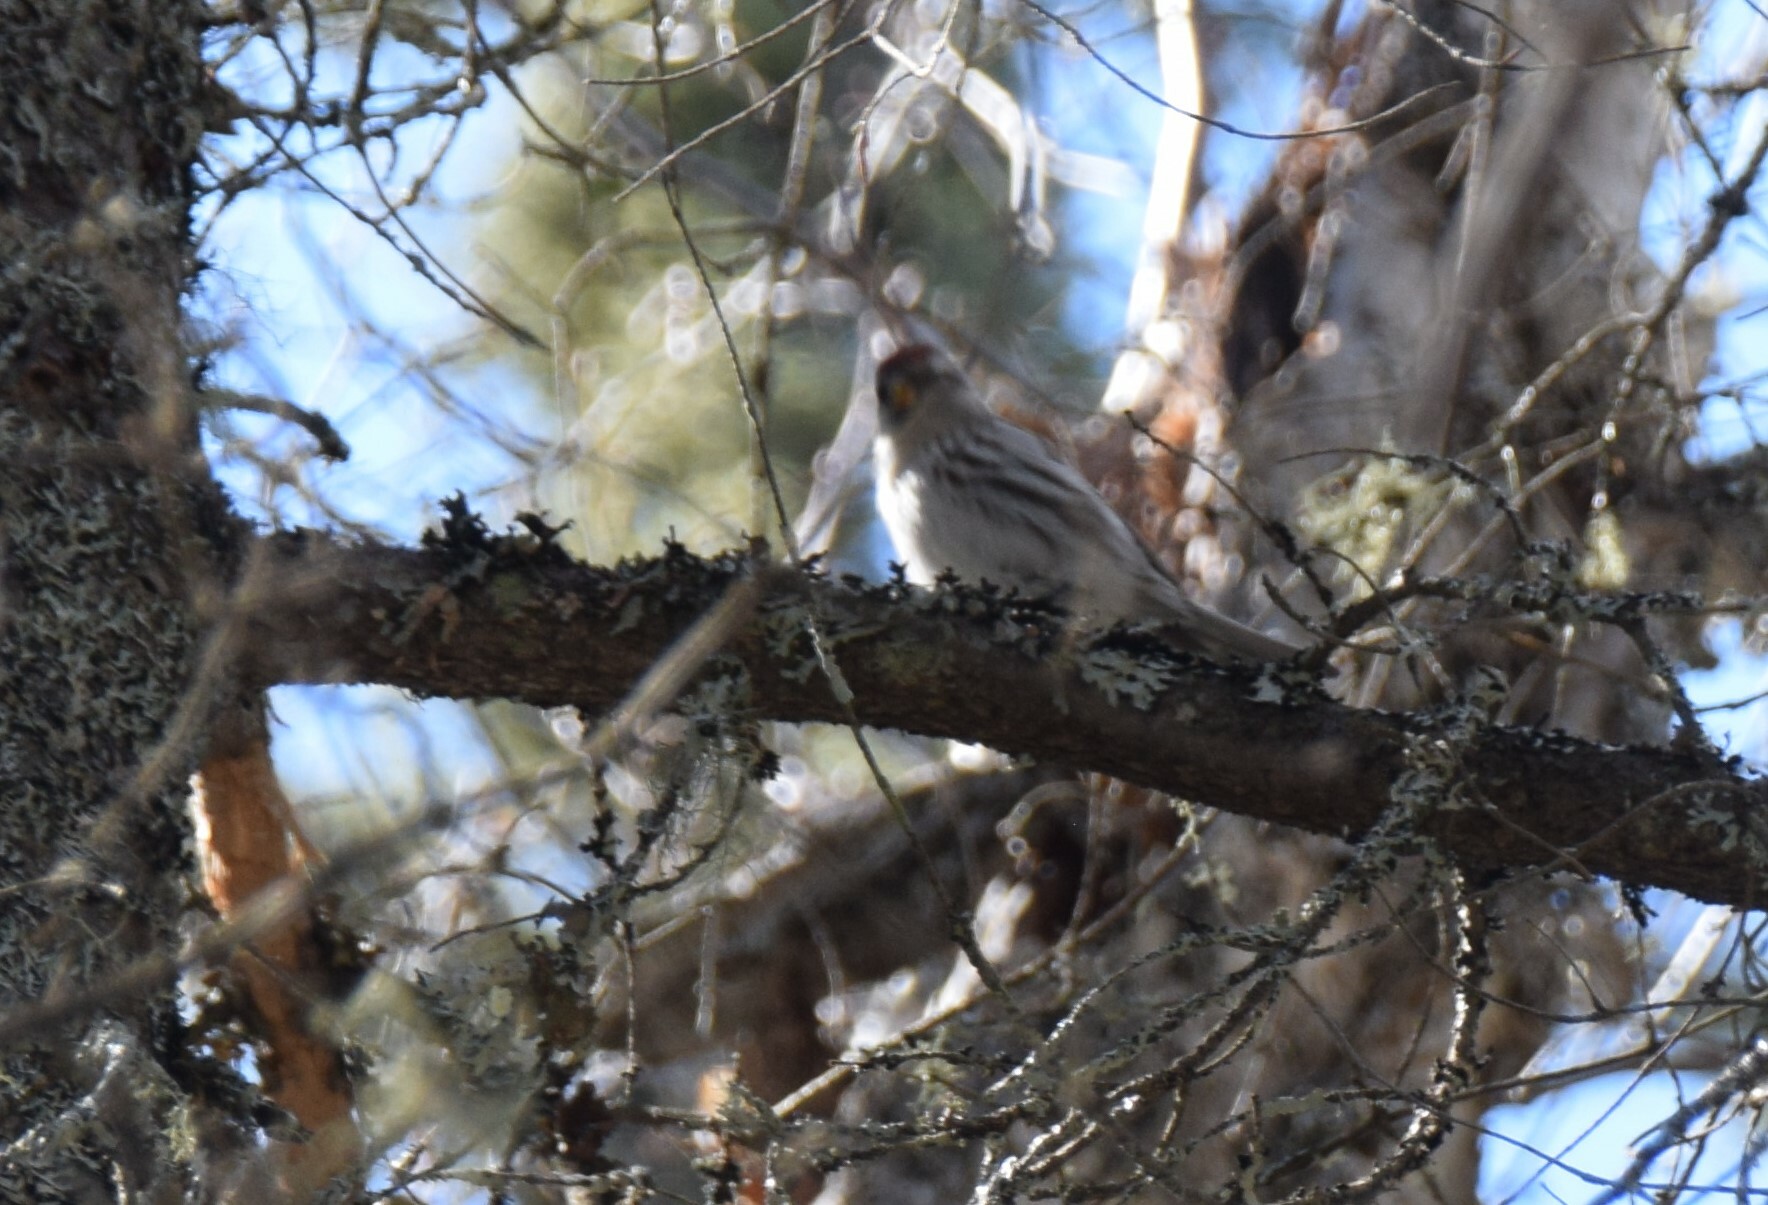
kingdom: Animalia
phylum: Chordata
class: Aves
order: Passeriformes
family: Fringillidae
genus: Acanthis
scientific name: Acanthis flammea
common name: Common redpoll
